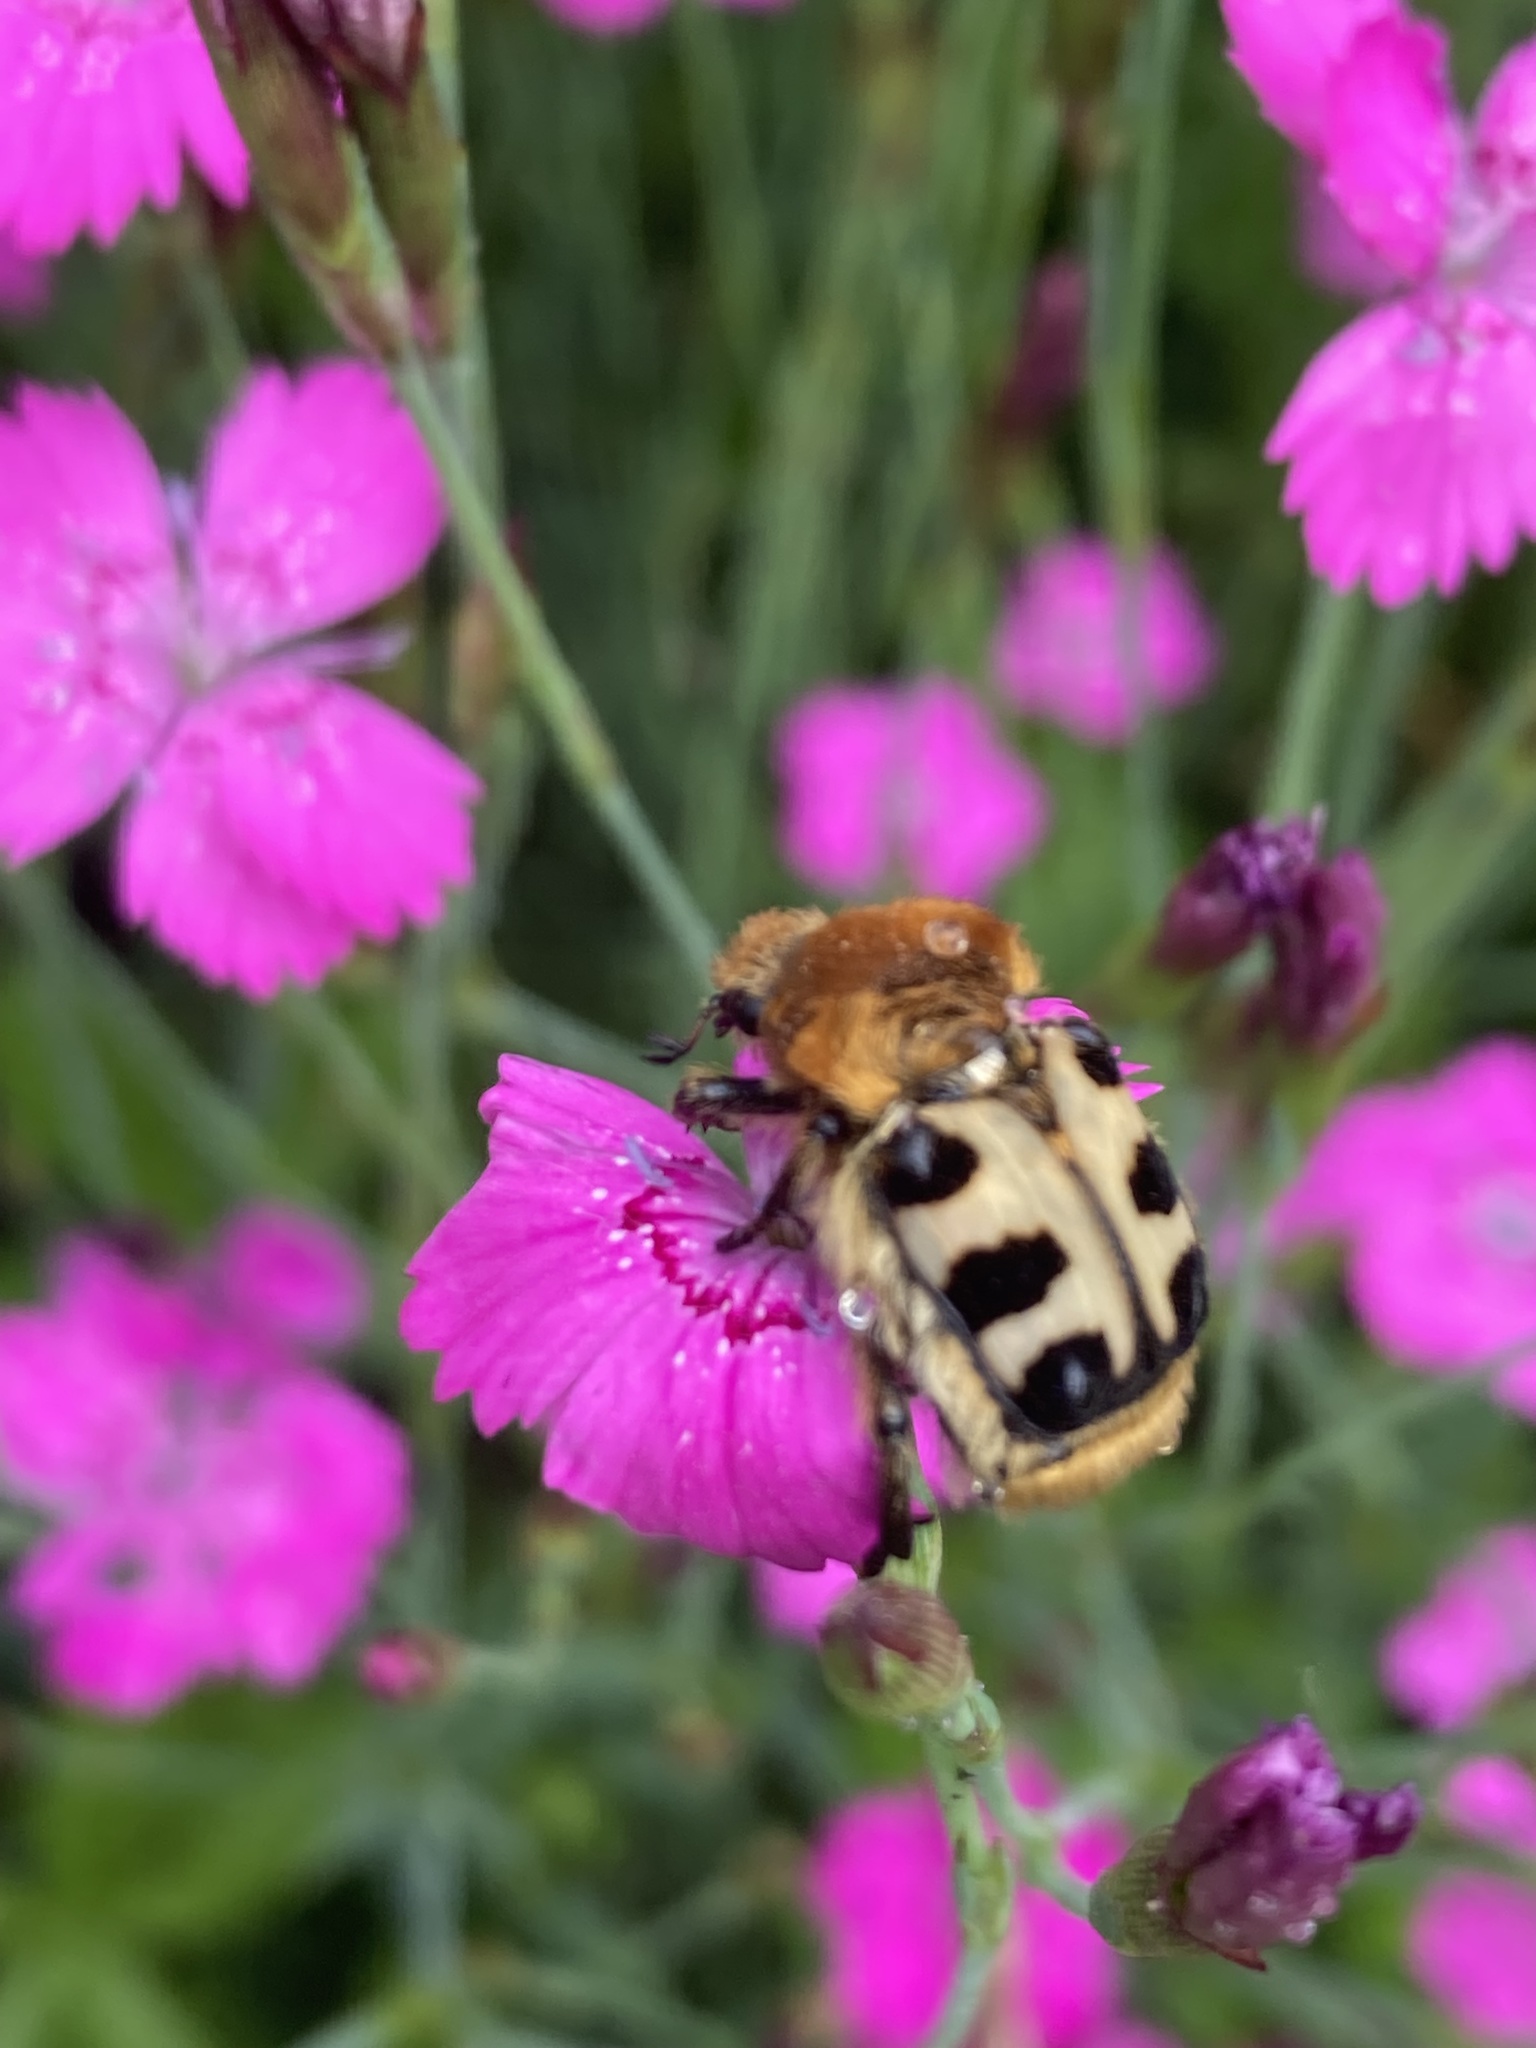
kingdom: Animalia
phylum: Arthropoda
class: Insecta
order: Coleoptera
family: Scarabaeidae
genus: Trichius
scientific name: Trichius gallicus
